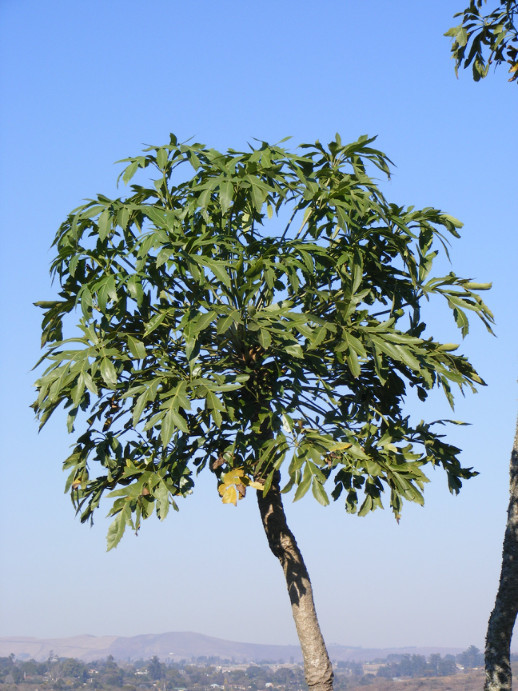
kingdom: Plantae
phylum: Tracheophyta
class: Magnoliopsida
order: Apiales
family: Araliaceae
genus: Cussonia
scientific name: Cussonia spicata
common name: Common cabbagetree
